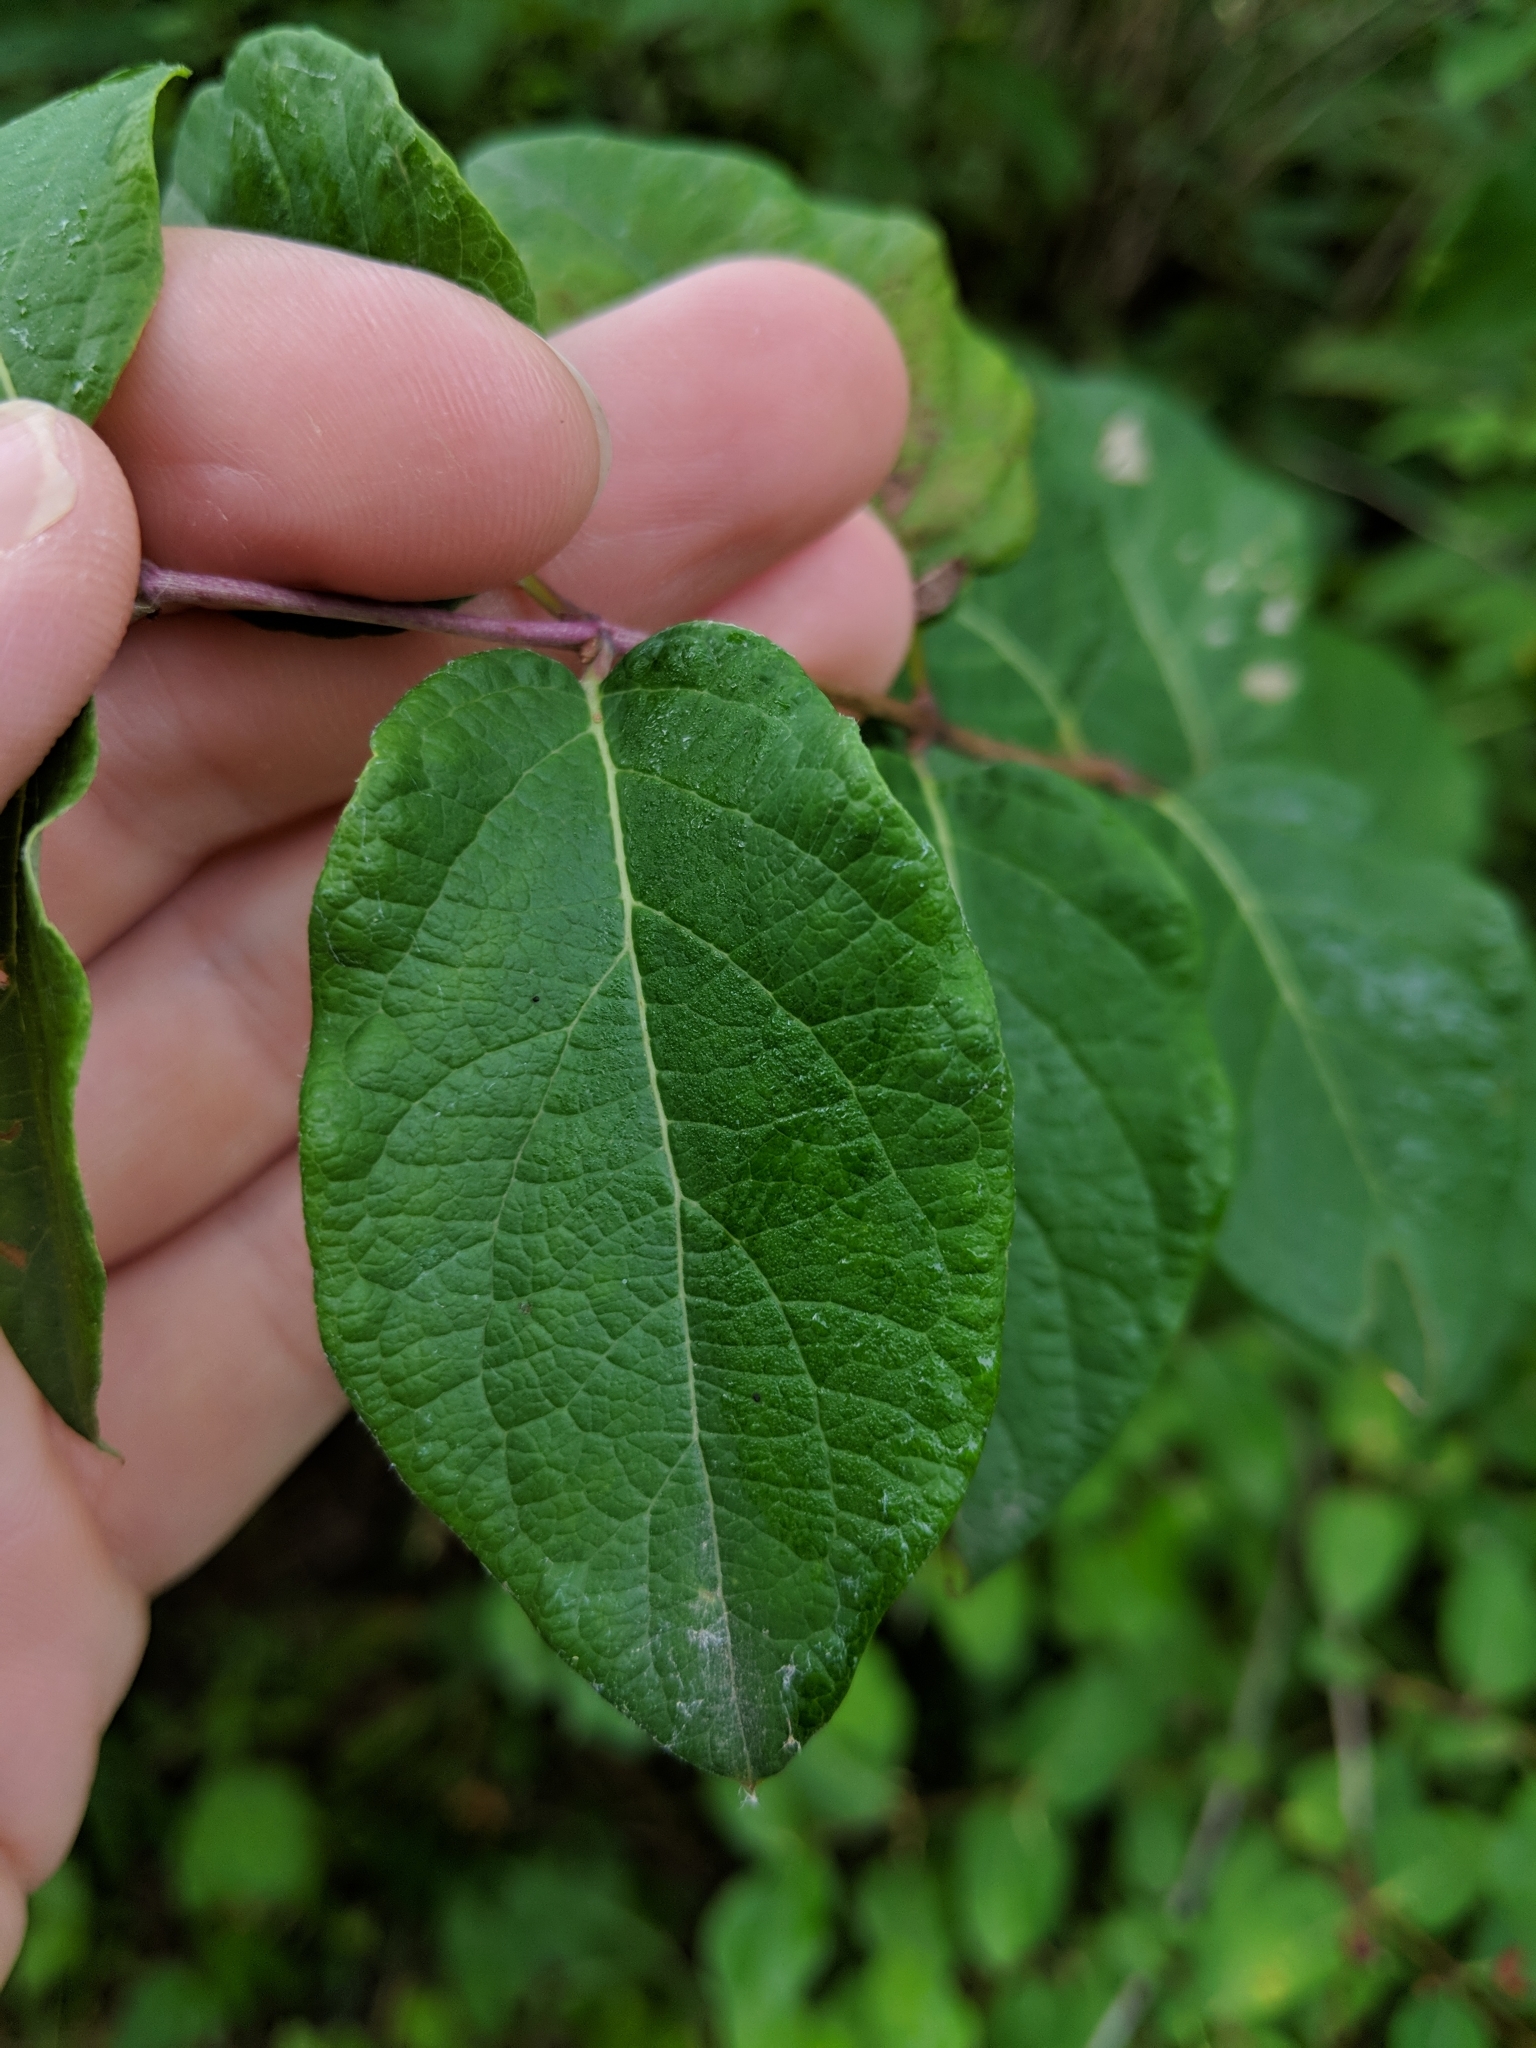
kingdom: Plantae
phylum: Tracheophyta
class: Magnoliopsida
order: Dipsacales
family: Caprifoliaceae
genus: Lonicera
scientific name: Lonicera tatarica
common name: Tatarian honeysuckle
